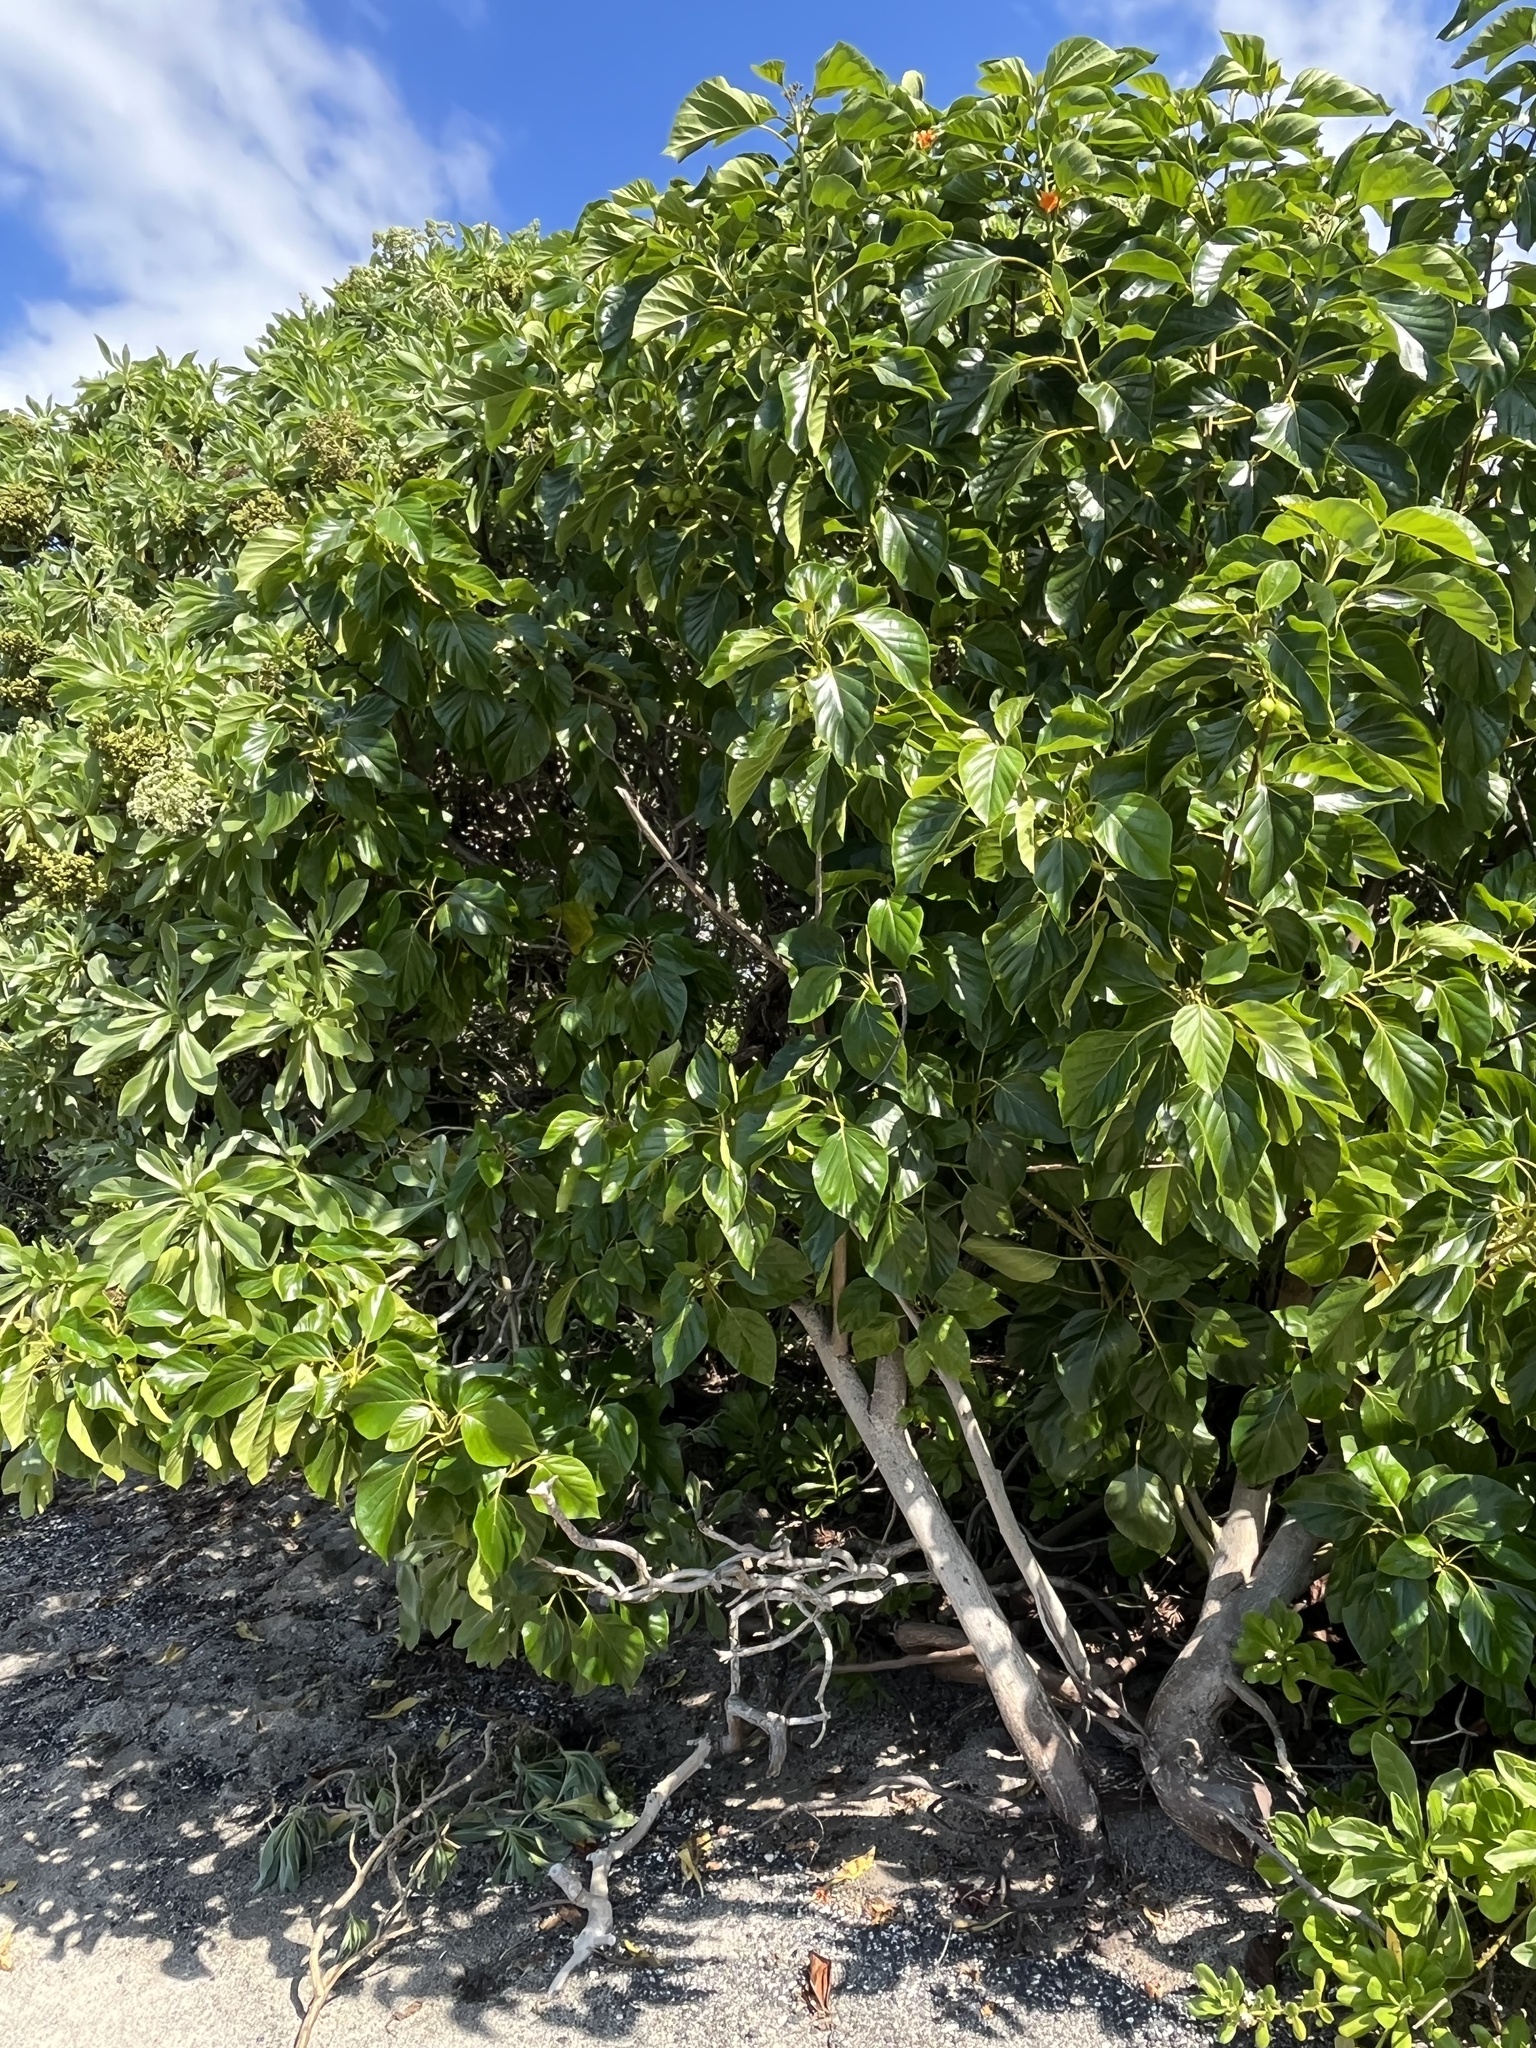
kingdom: Plantae
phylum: Tracheophyta
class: Magnoliopsida
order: Boraginales
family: Heliotropiaceae
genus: Heliotropium
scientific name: Heliotropium velutinum
